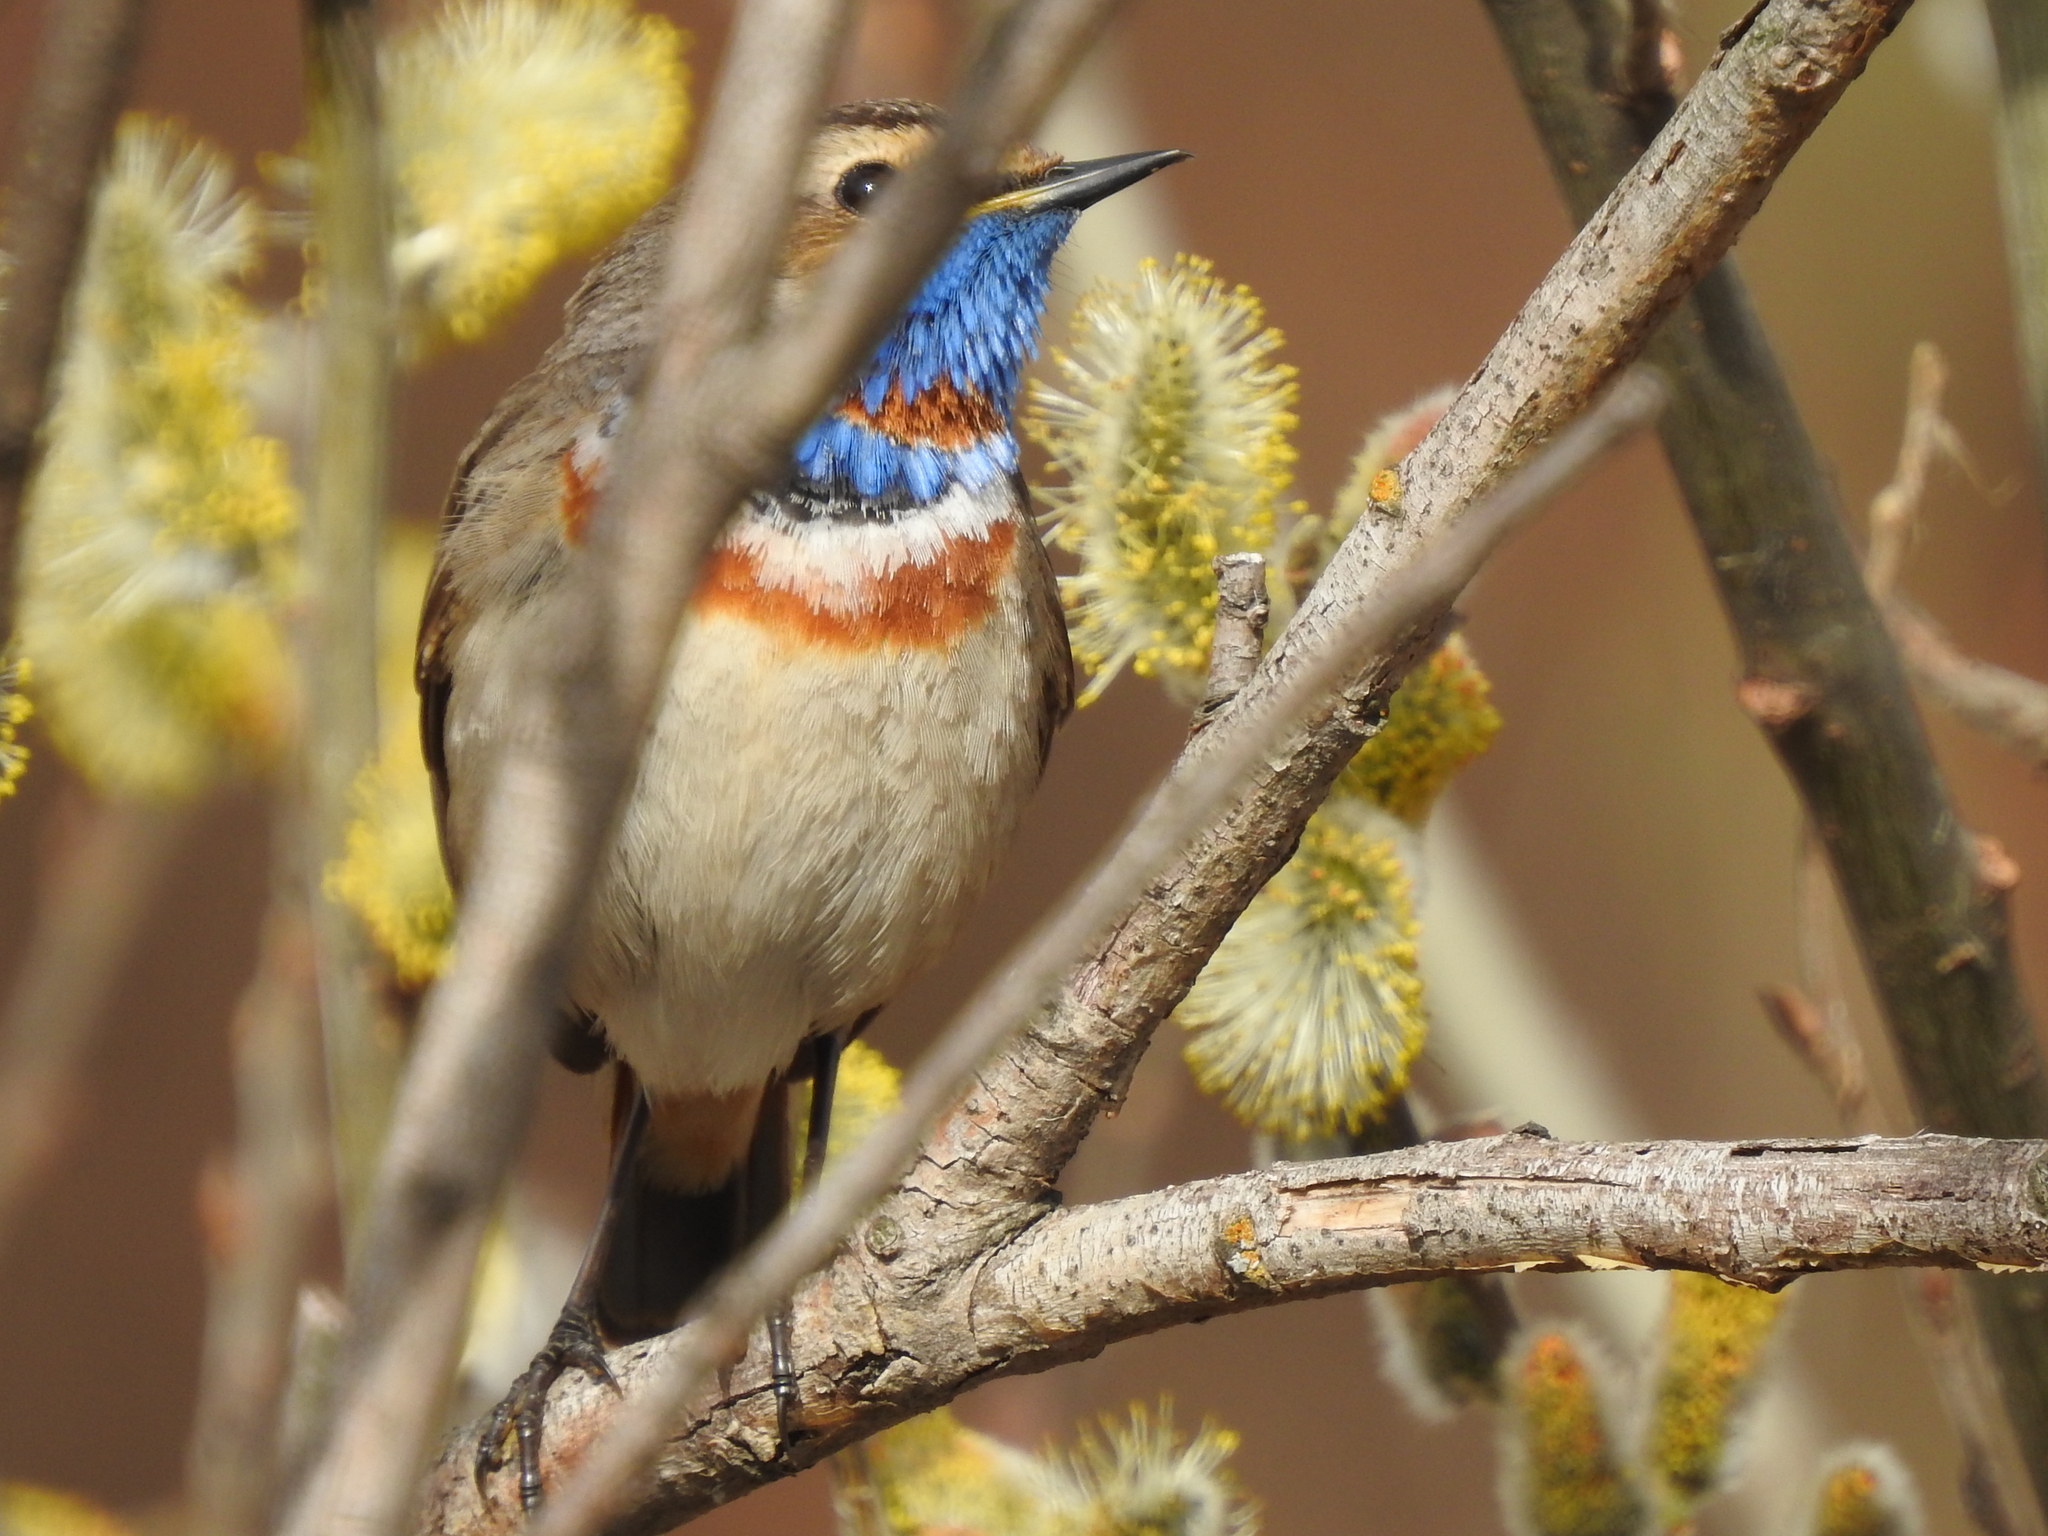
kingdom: Animalia
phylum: Chordata
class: Aves
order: Passeriformes
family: Muscicapidae
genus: Luscinia
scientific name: Luscinia svecica
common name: Bluethroat
